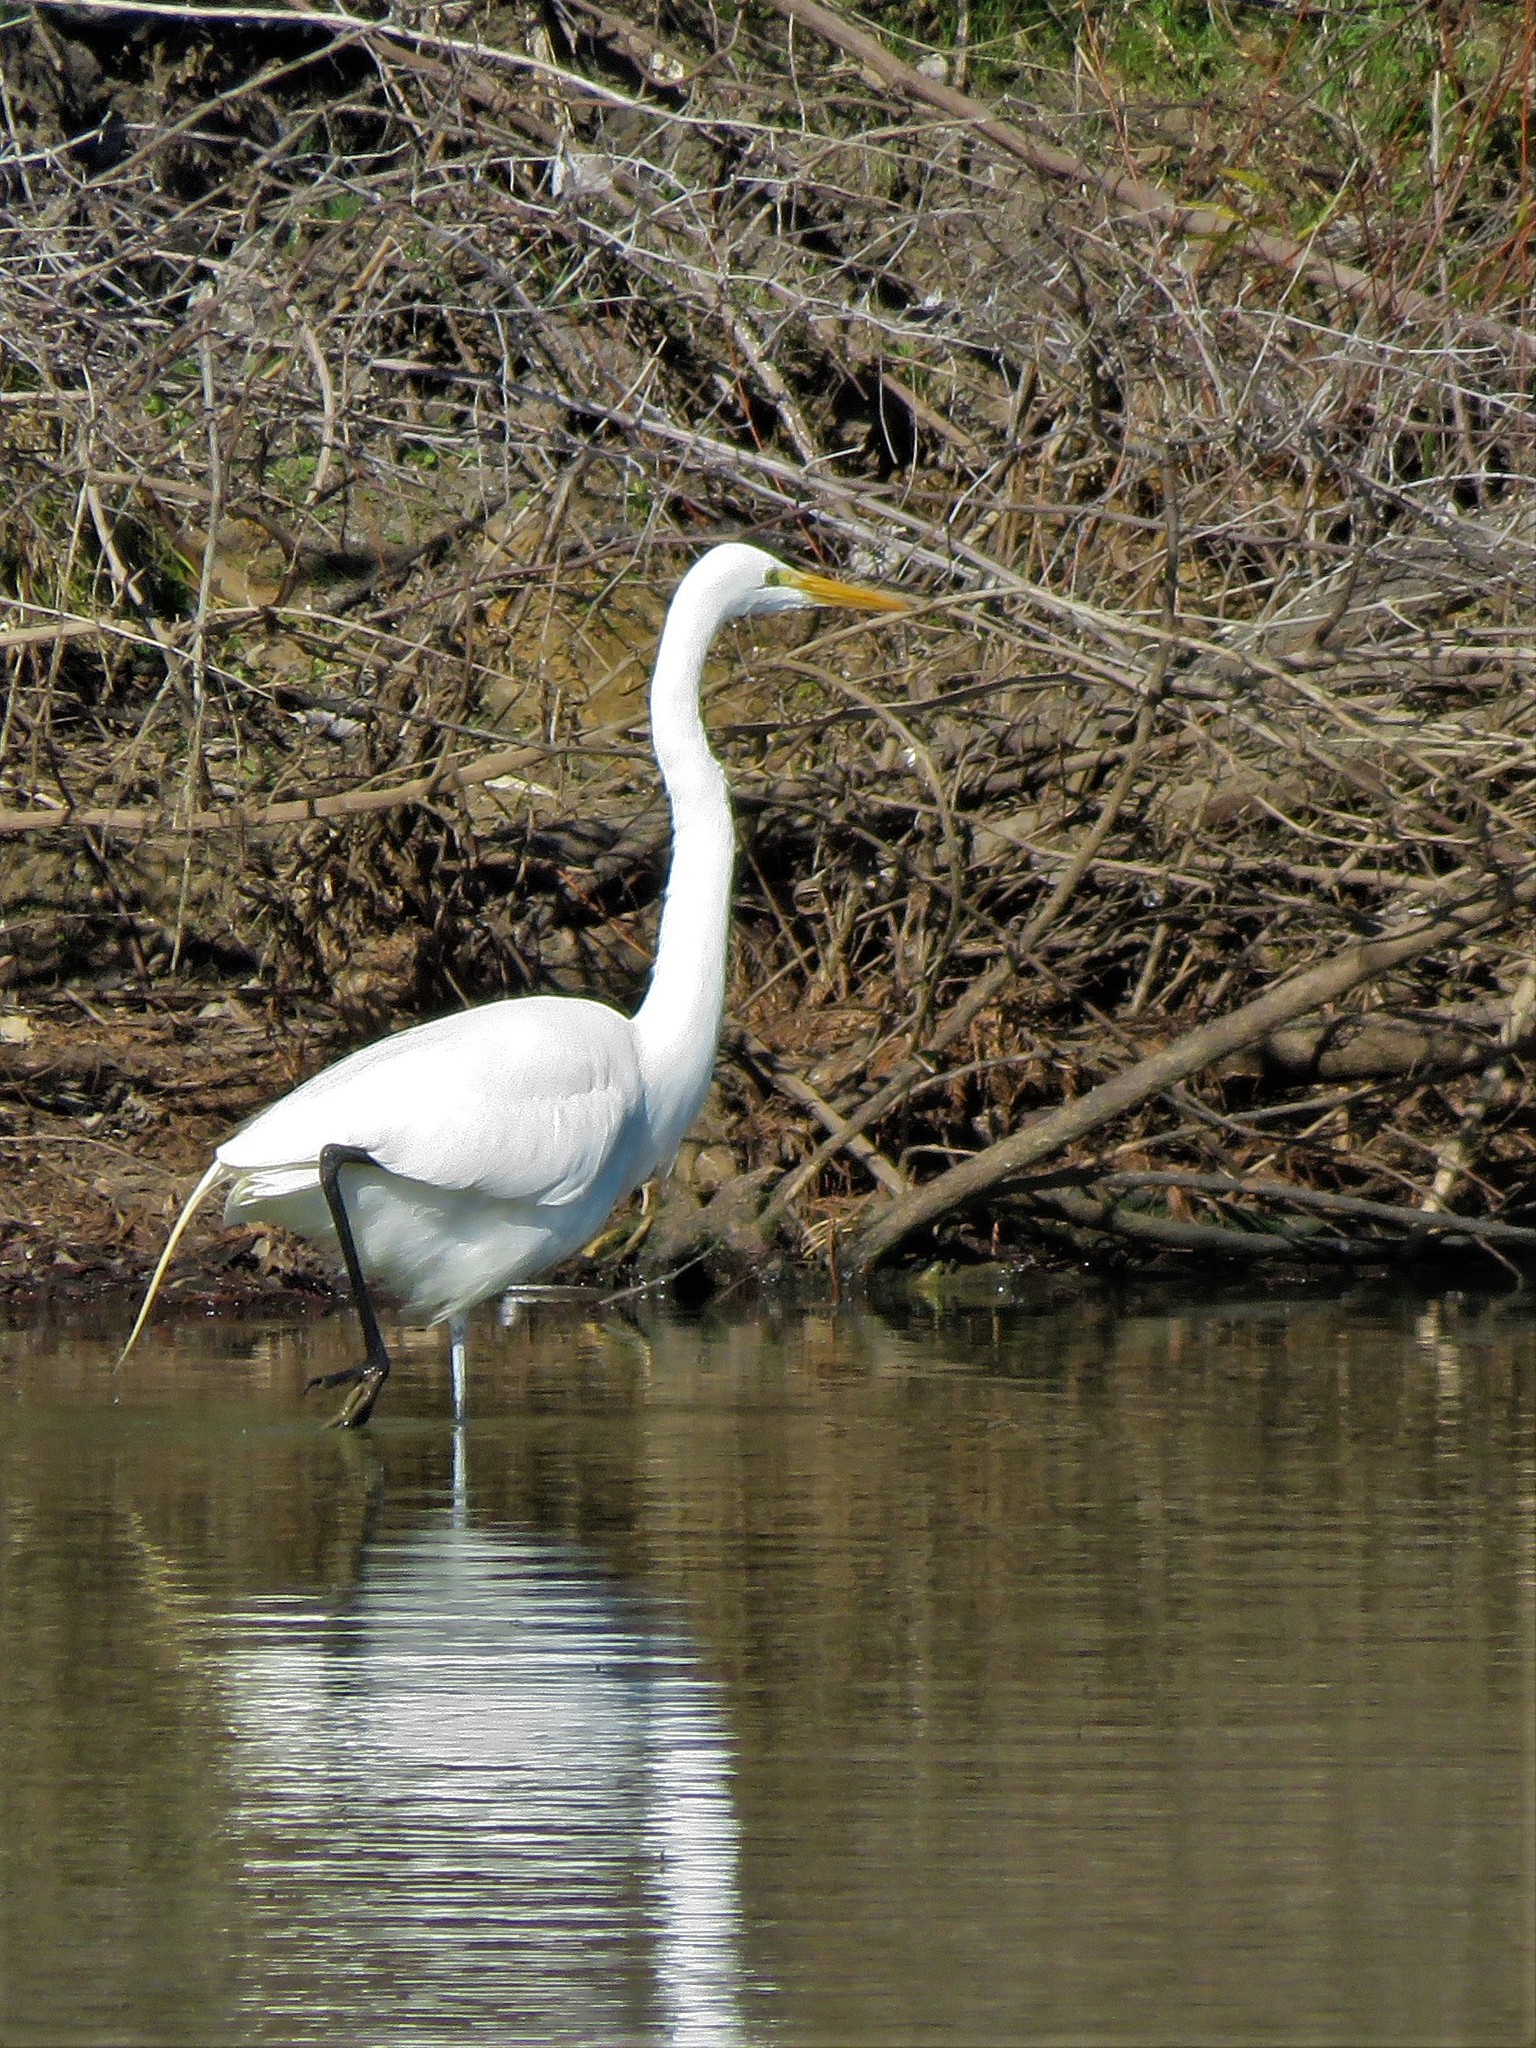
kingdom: Animalia
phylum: Chordata
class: Aves
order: Pelecaniformes
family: Ardeidae
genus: Ardea
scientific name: Ardea alba
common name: Great egret
